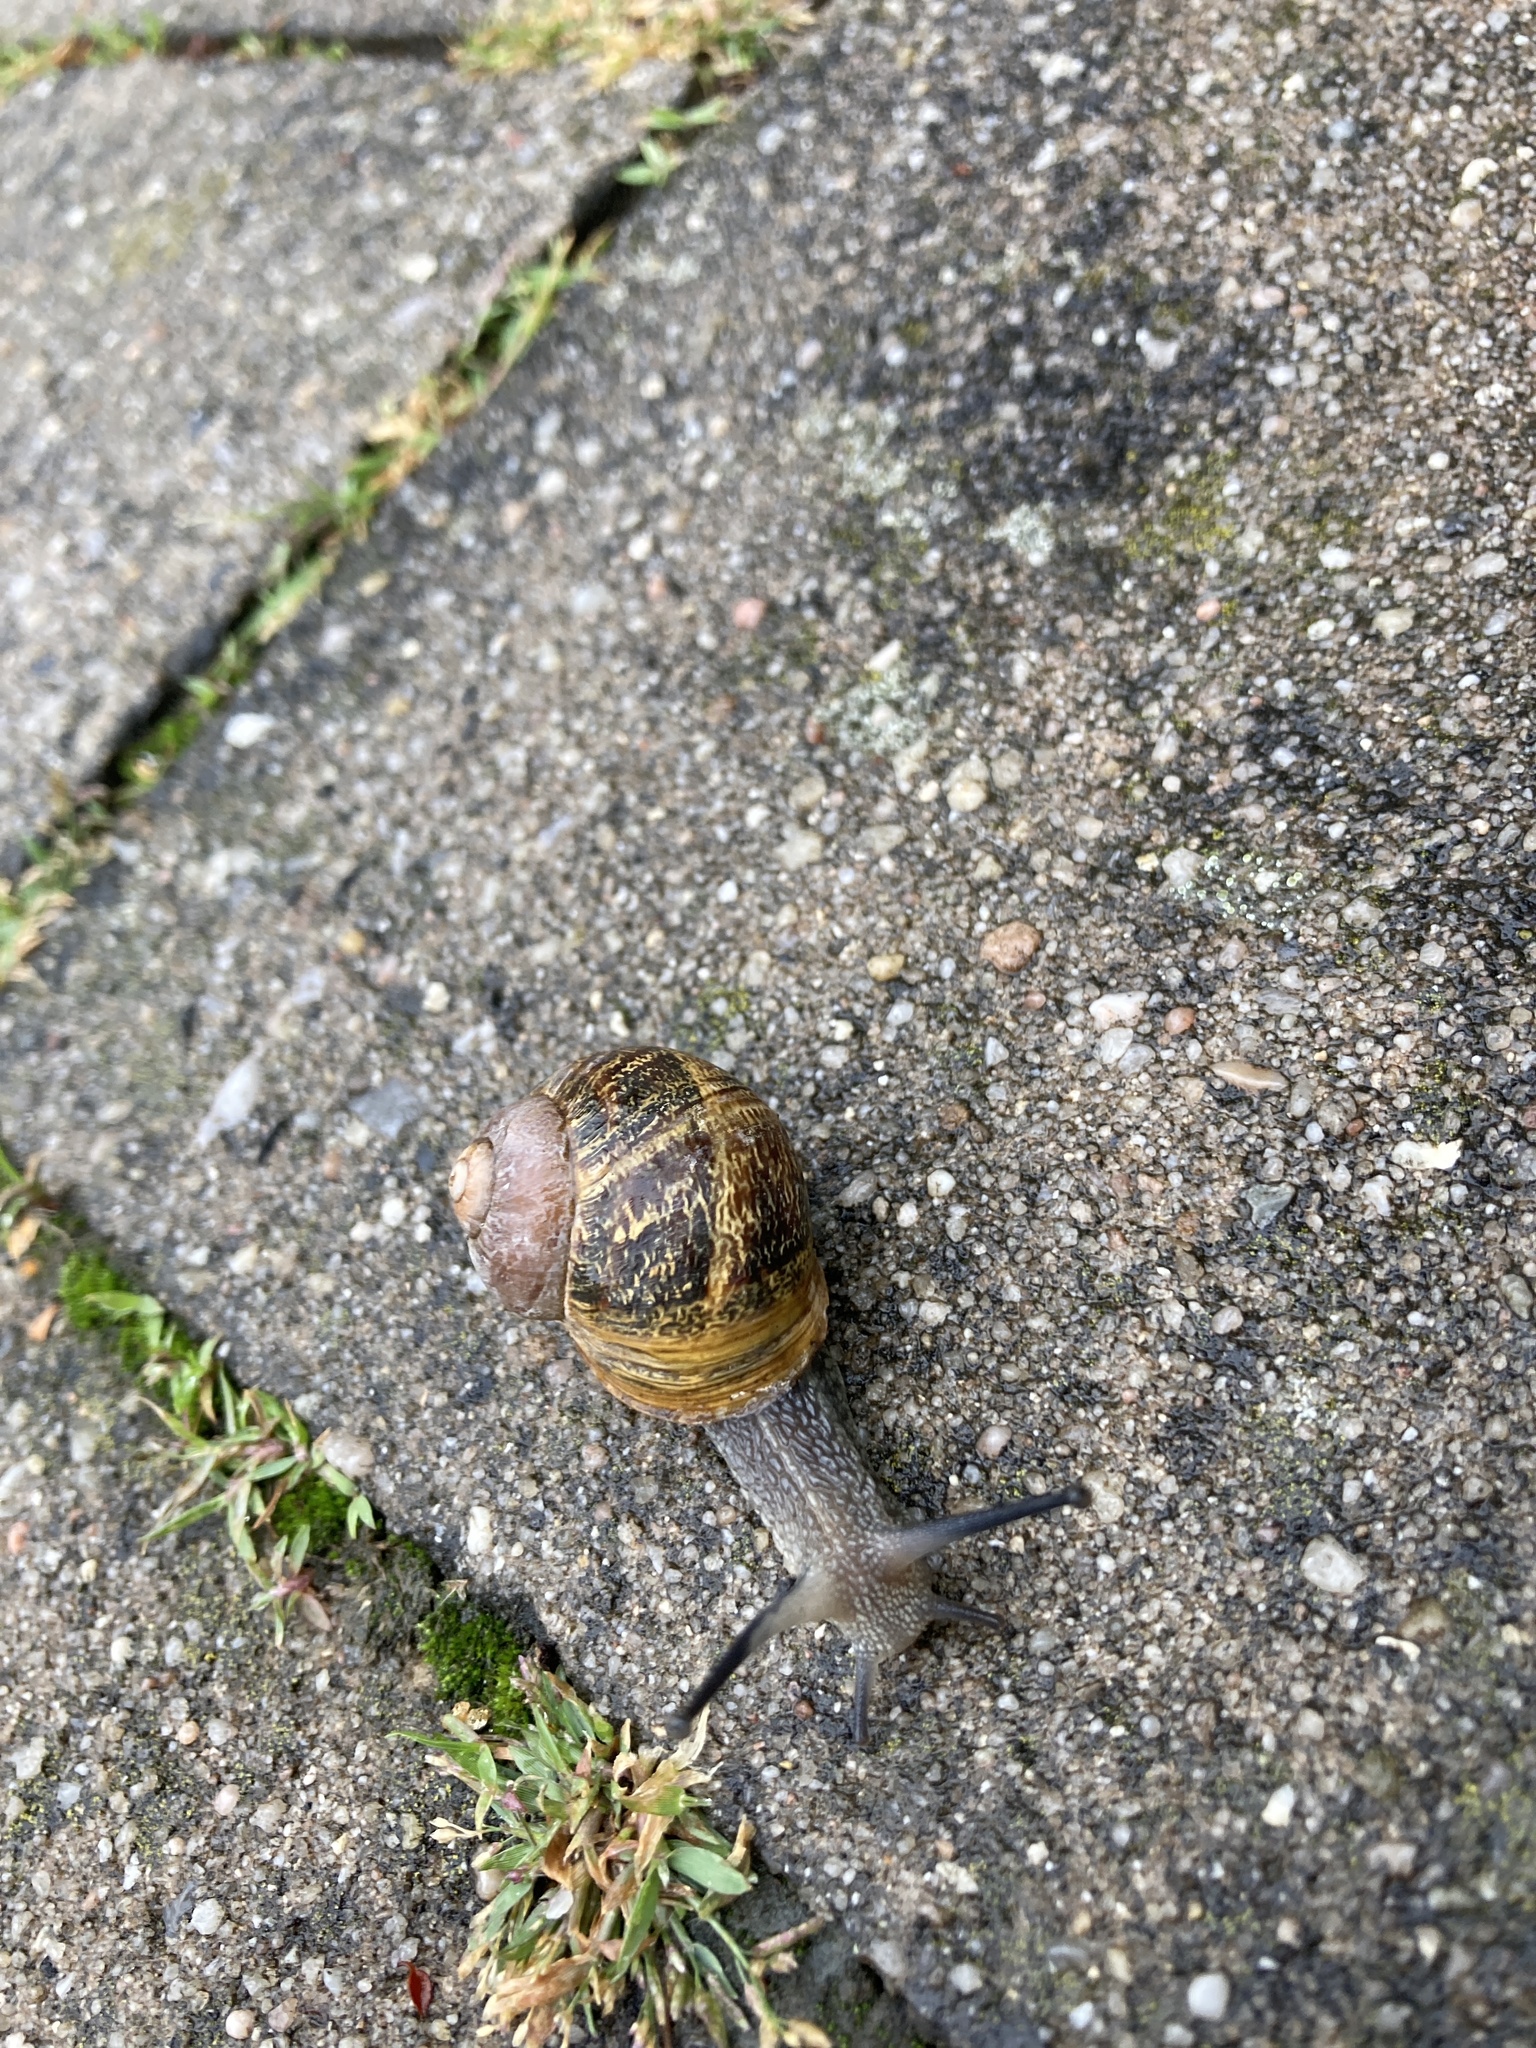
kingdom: Animalia
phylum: Mollusca
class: Gastropoda
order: Stylommatophora
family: Helicidae
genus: Cornu
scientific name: Cornu aspersum
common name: Brown garden snail
